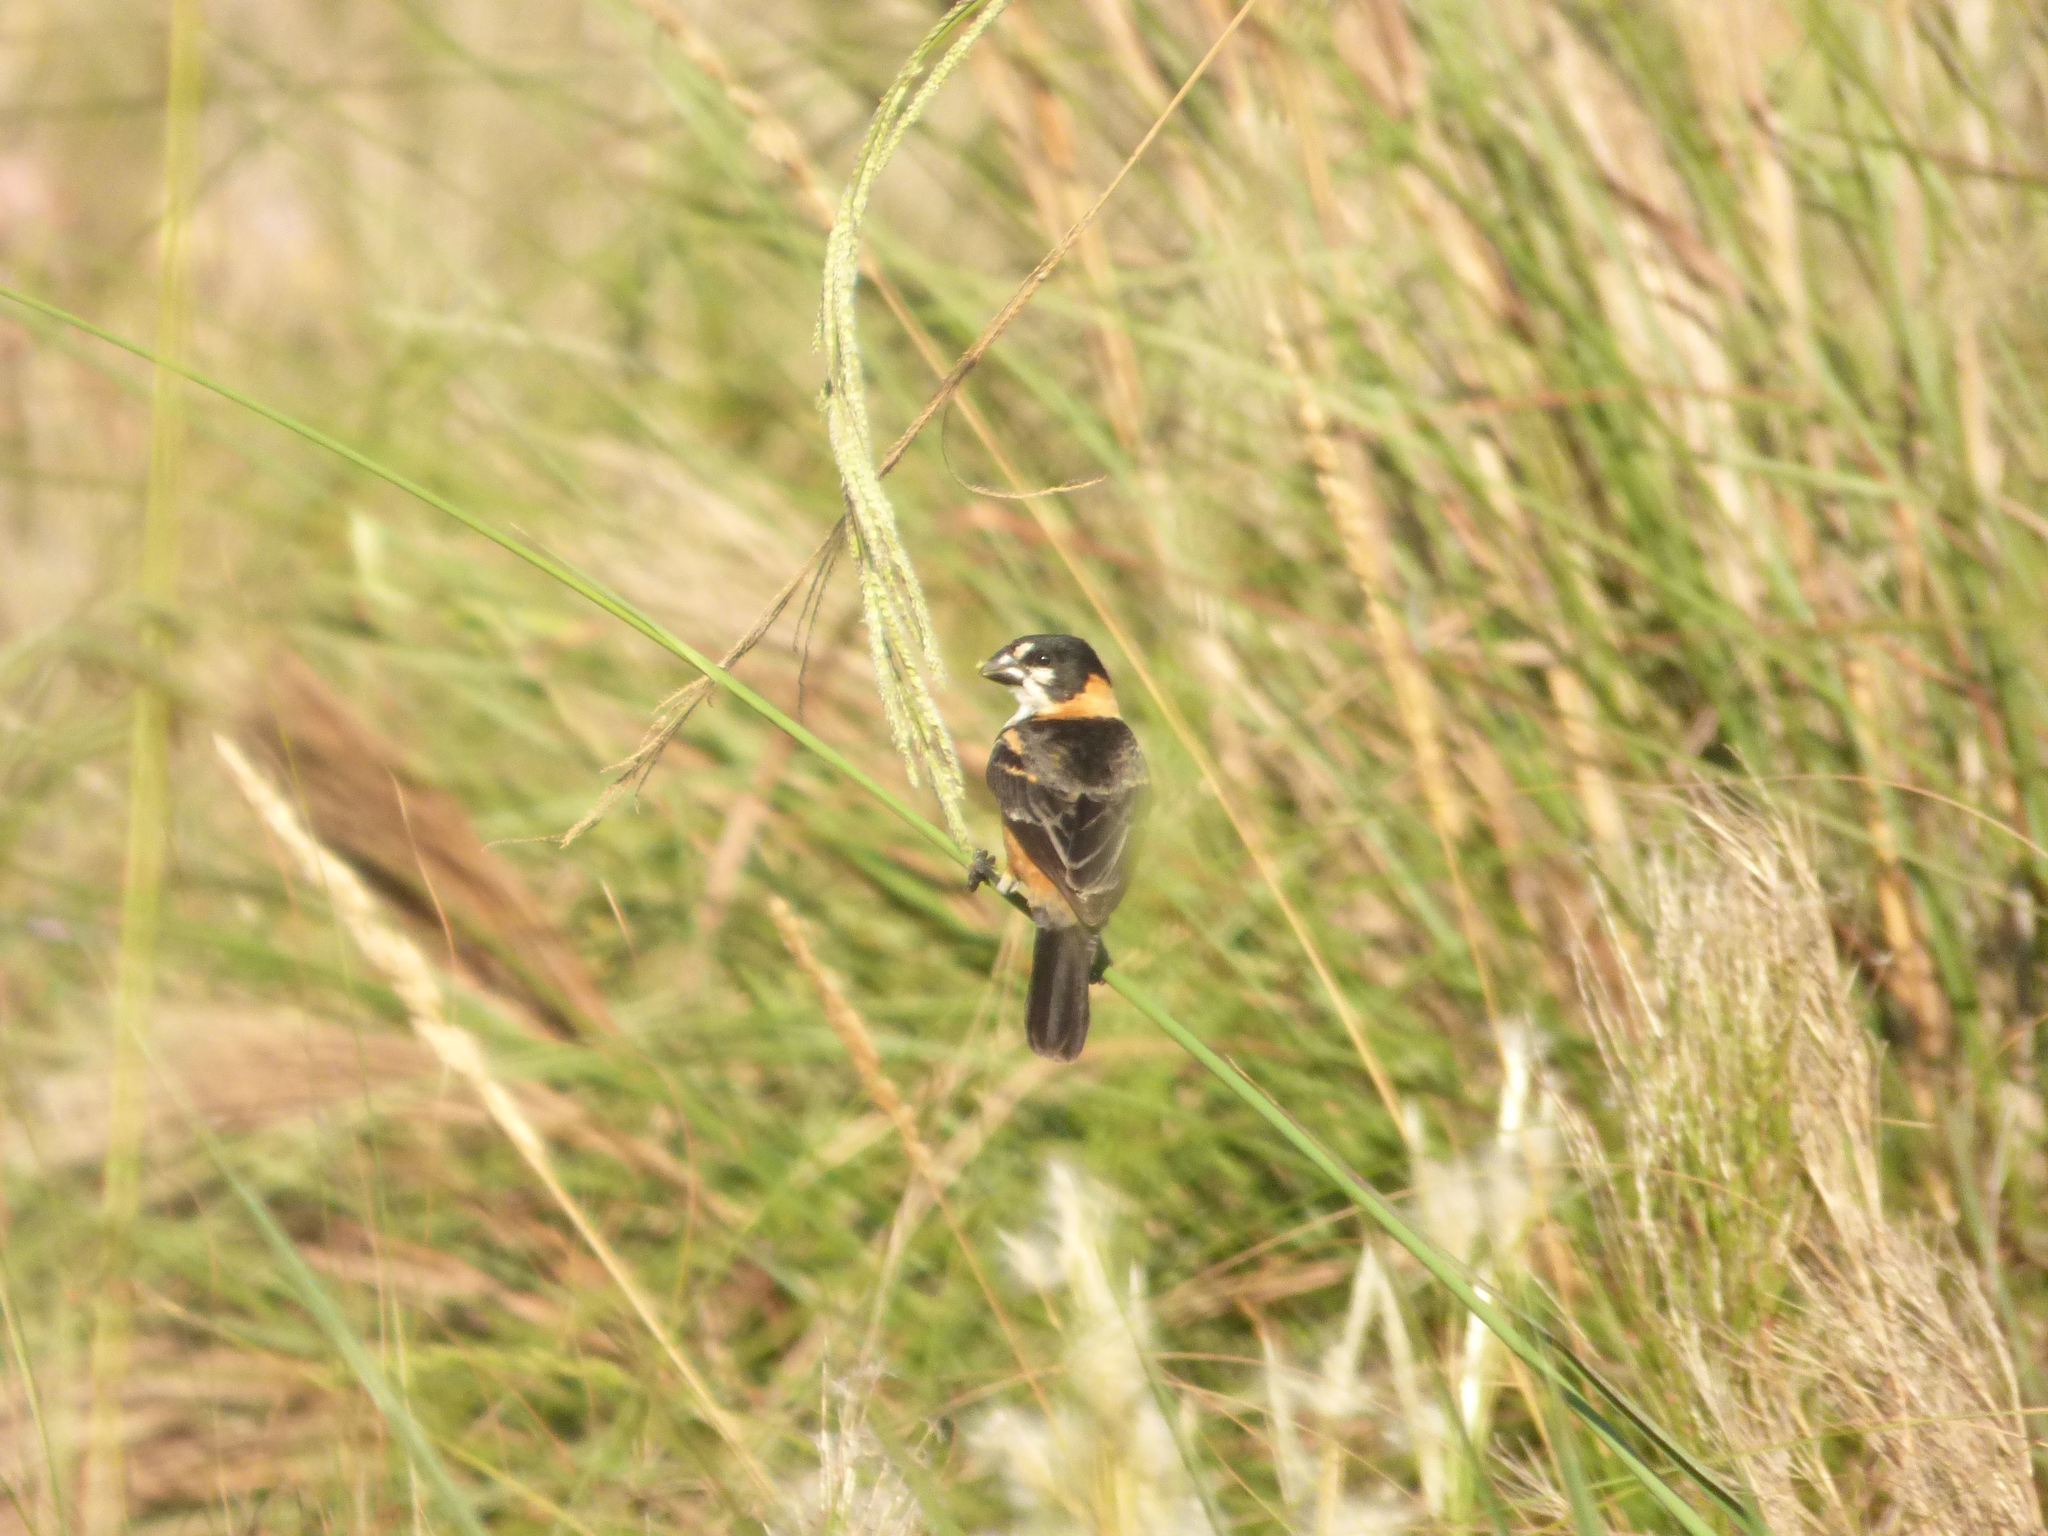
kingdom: Animalia
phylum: Chordata
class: Aves
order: Passeriformes
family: Thraupidae
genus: Sporophila
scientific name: Sporophila collaris
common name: Rusty-collared seedeater
